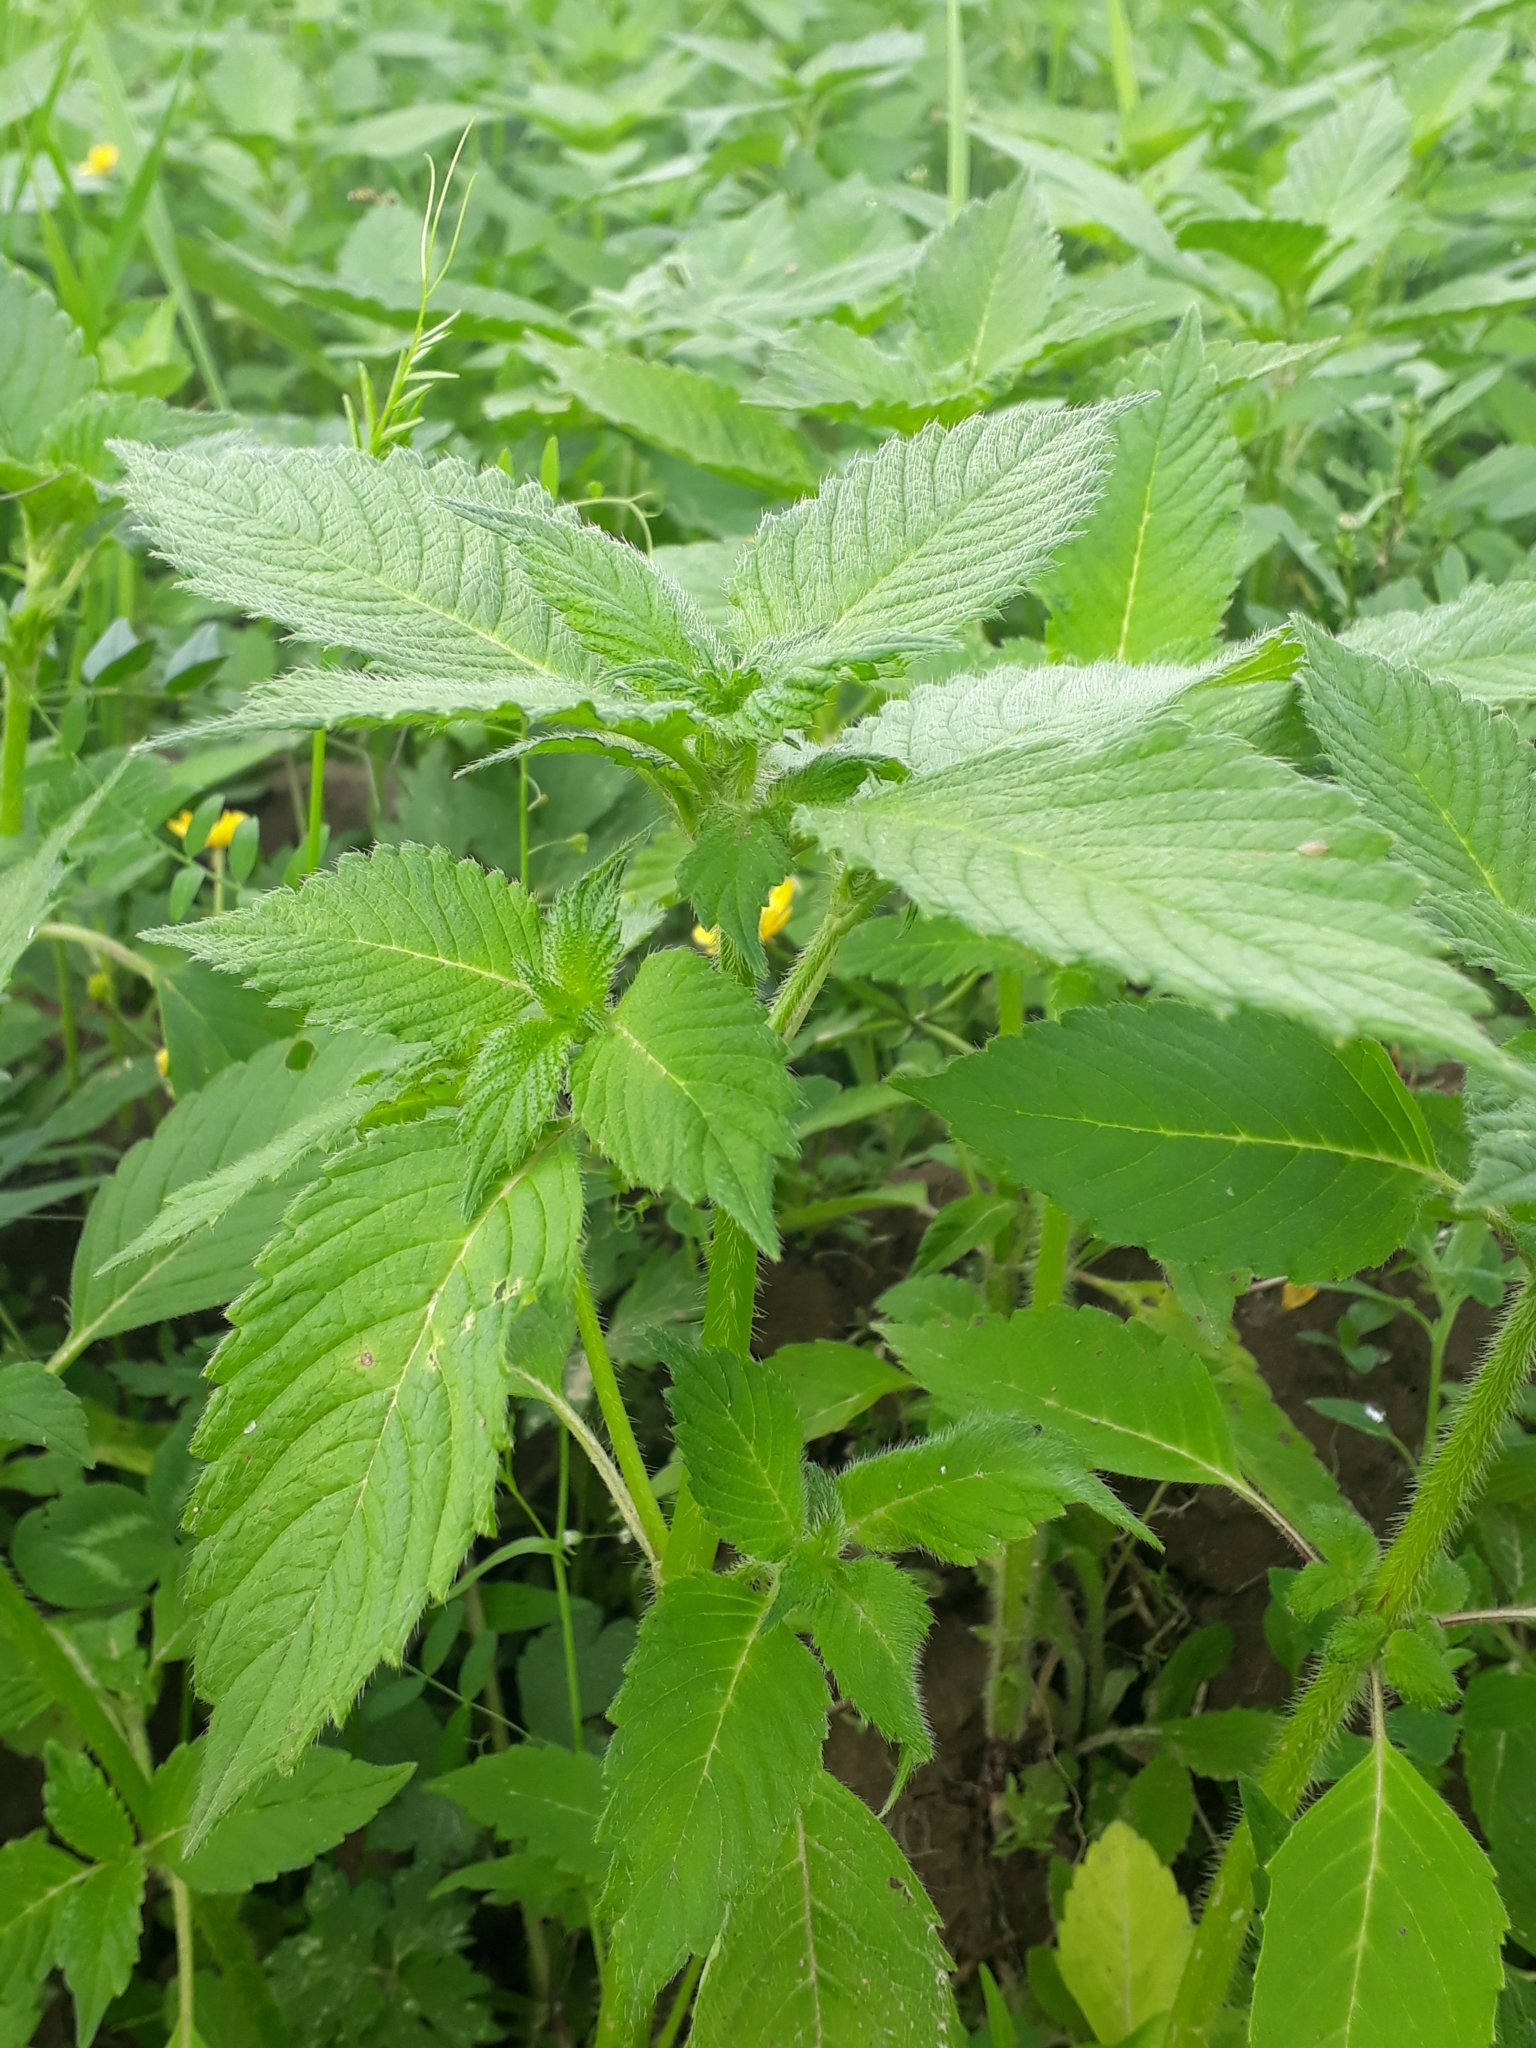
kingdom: Plantae
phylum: Tracheophyta
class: Magnoliopsida
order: Lamiales
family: Lamiaceae
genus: Galeopsis
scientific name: Galeopsis
